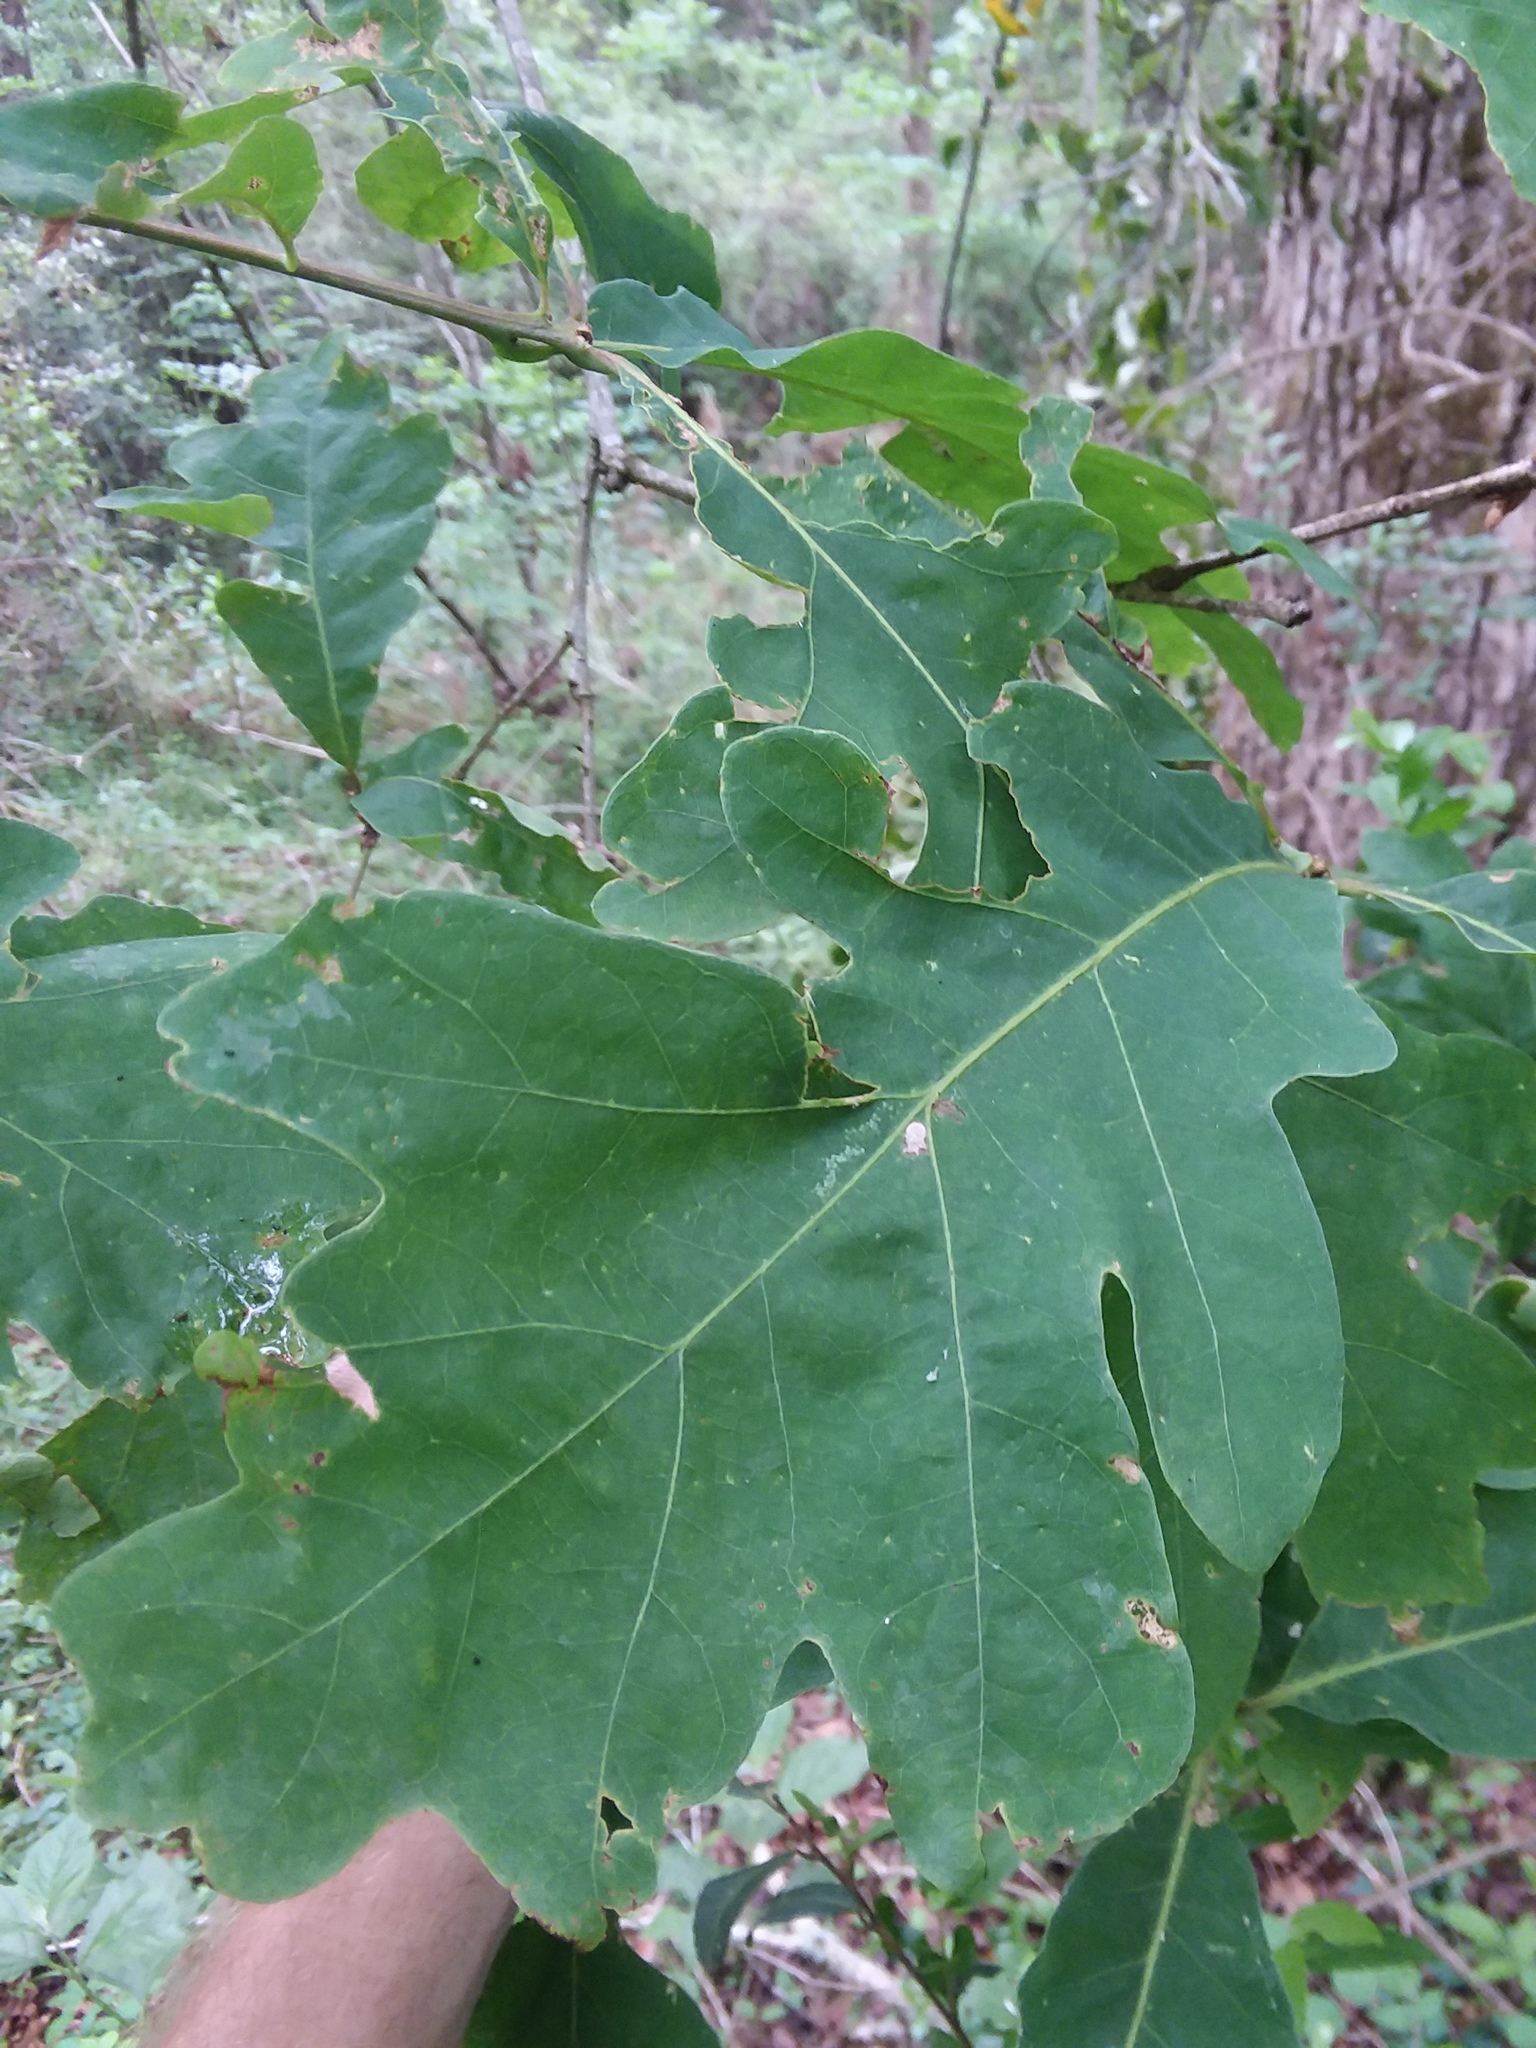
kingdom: Plantae
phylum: Tracheophyta
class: Magnoliopsida
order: Fagales
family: Fagaceae
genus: Quercus
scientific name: Quercus alba
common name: White oak
